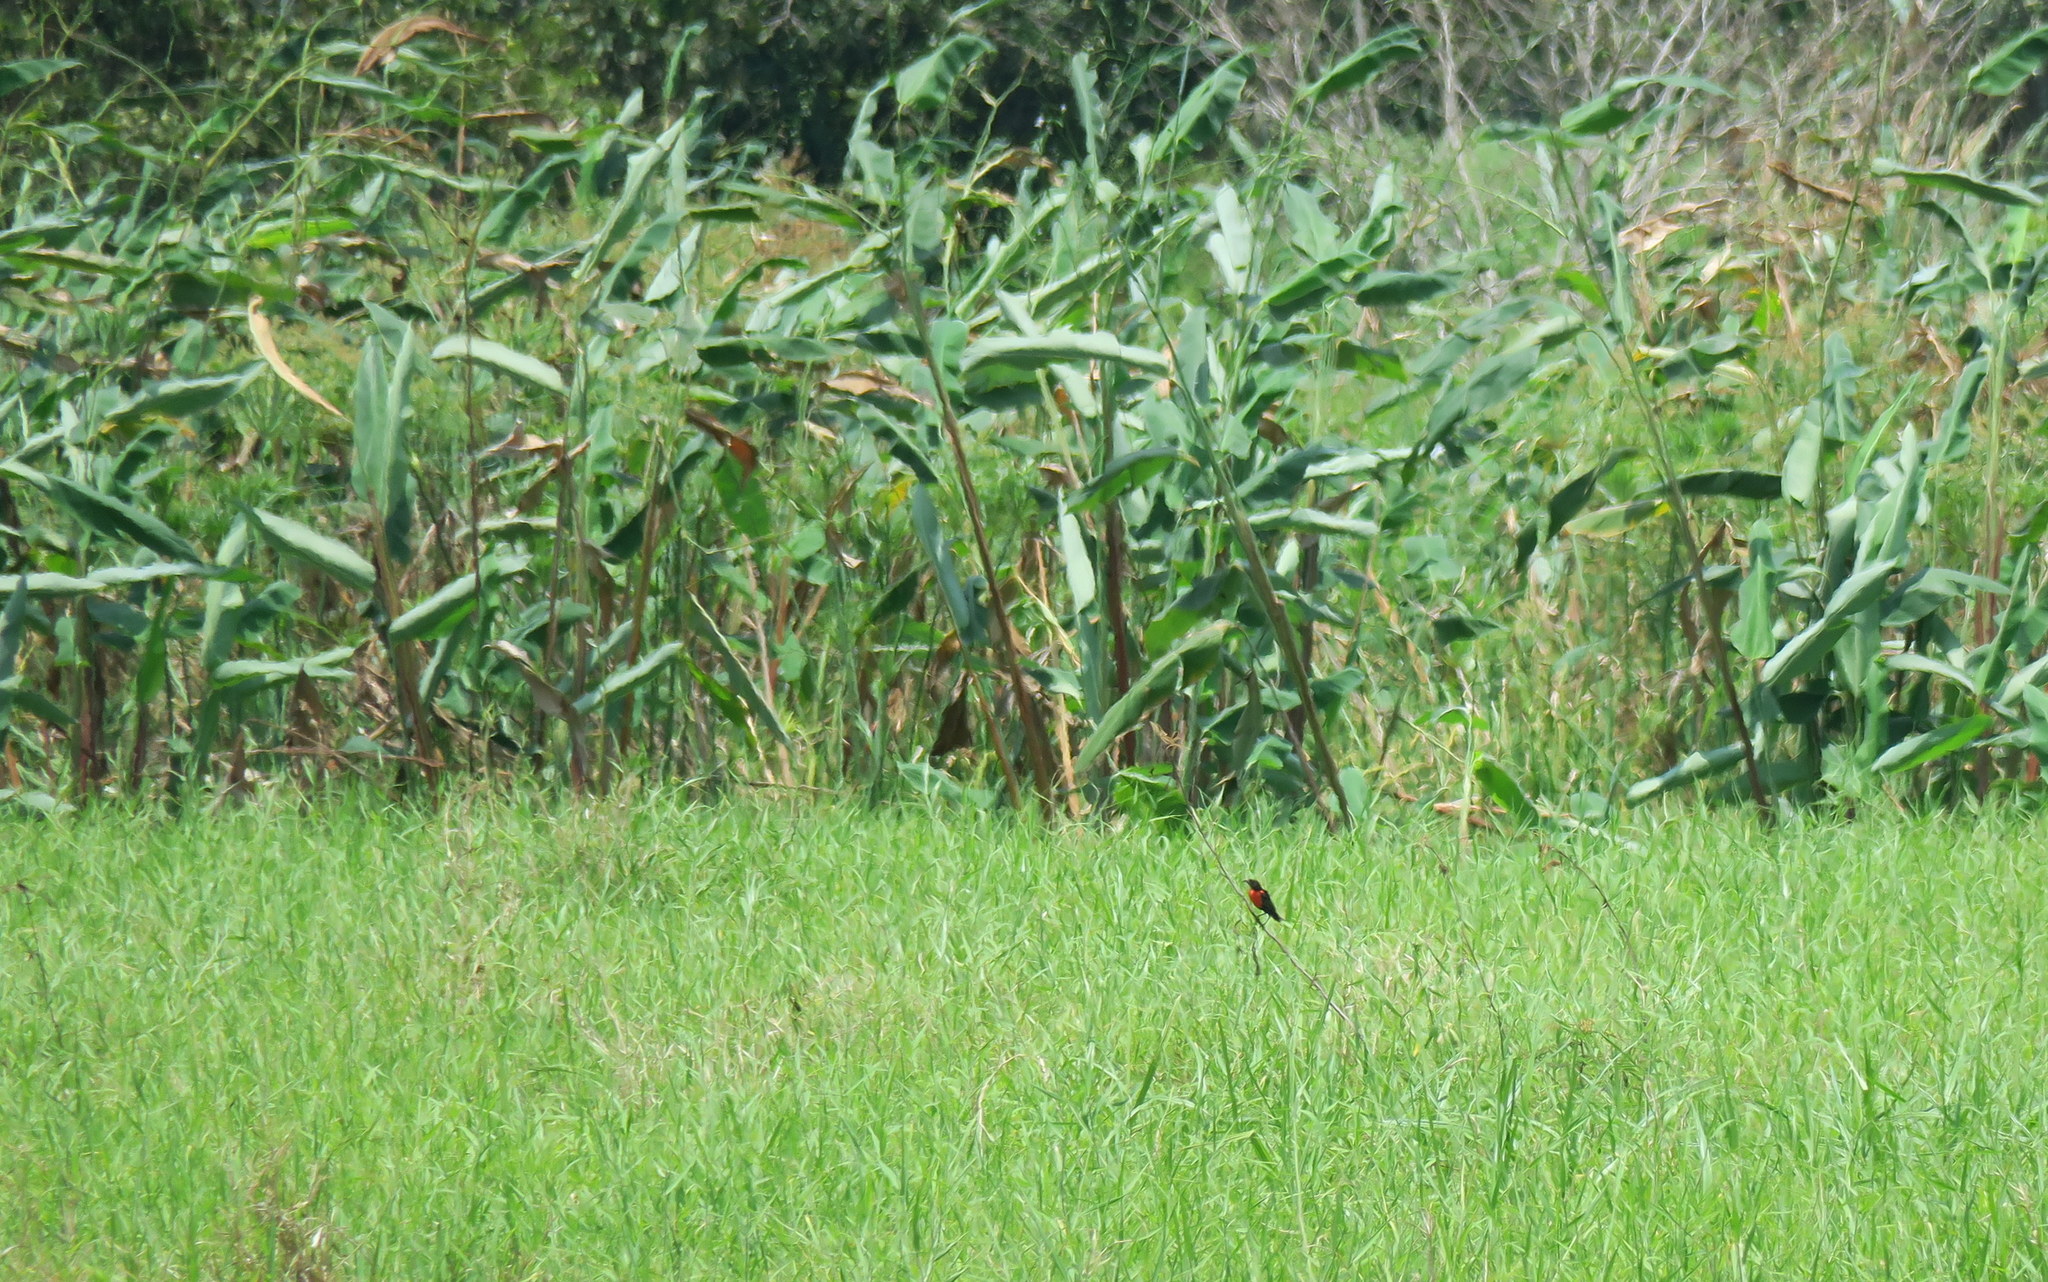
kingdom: Animalia
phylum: Chordata
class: Aves
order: Passeriformes
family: Icteridae
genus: Sturnella
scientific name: Sturnella militaris
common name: Red-breasted blackbird
